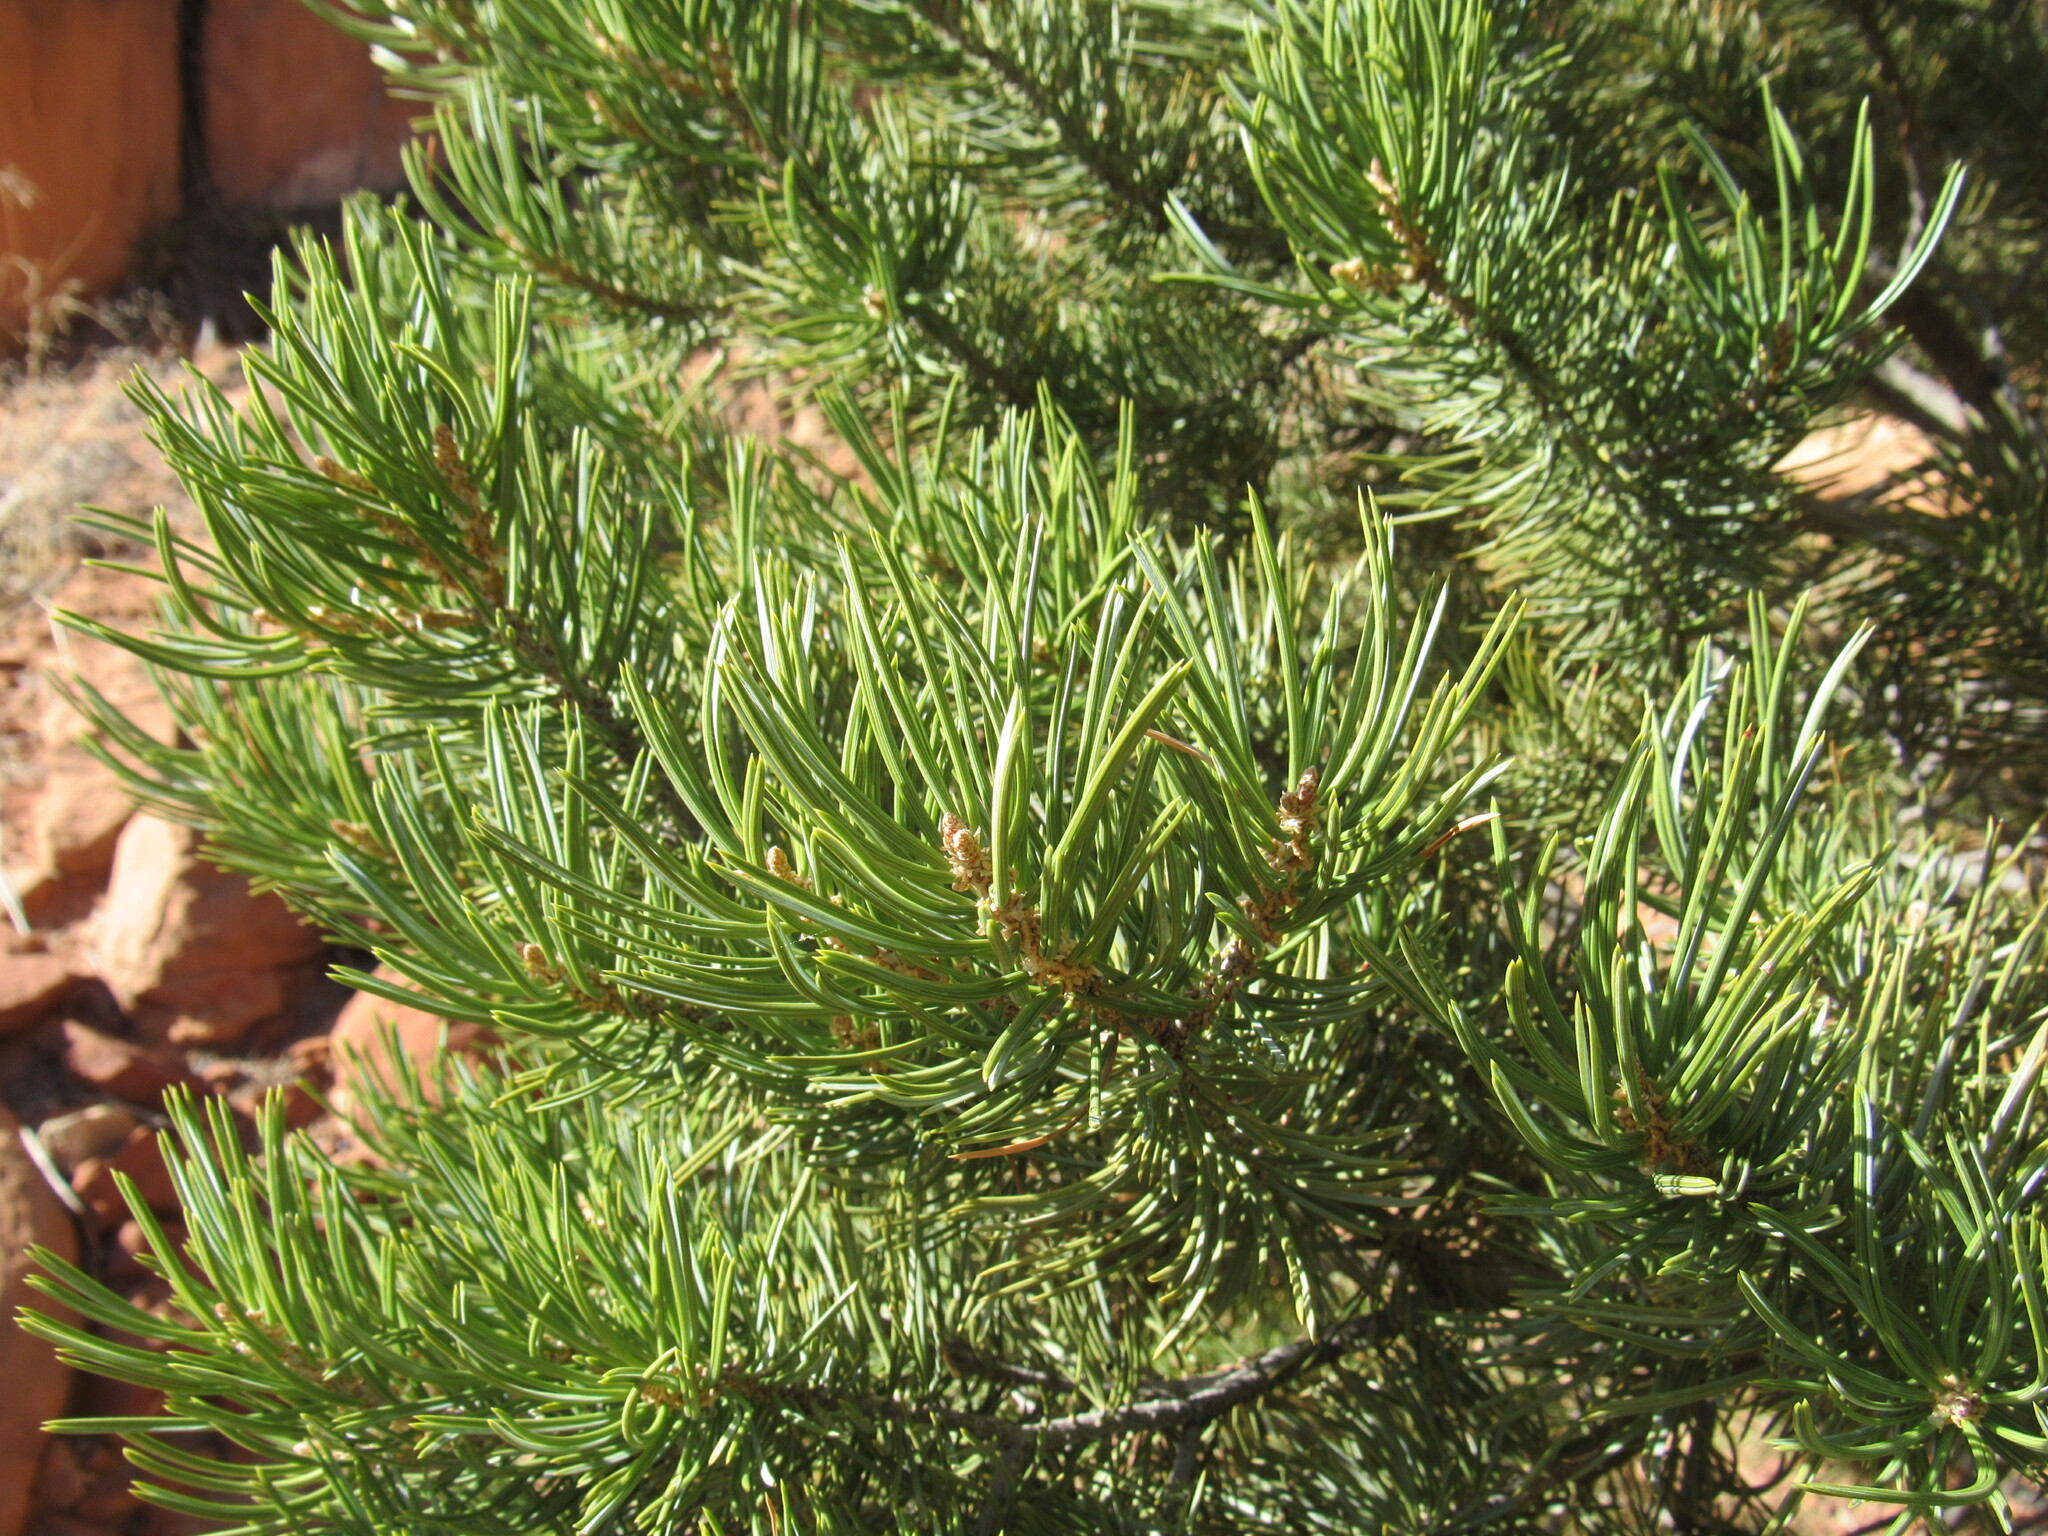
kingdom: Plantae
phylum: Tracheophyta
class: Pinopsida
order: Pinales
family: Pinaceae
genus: Pinus
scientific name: Pinus edulis
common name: Colorado pinyon
